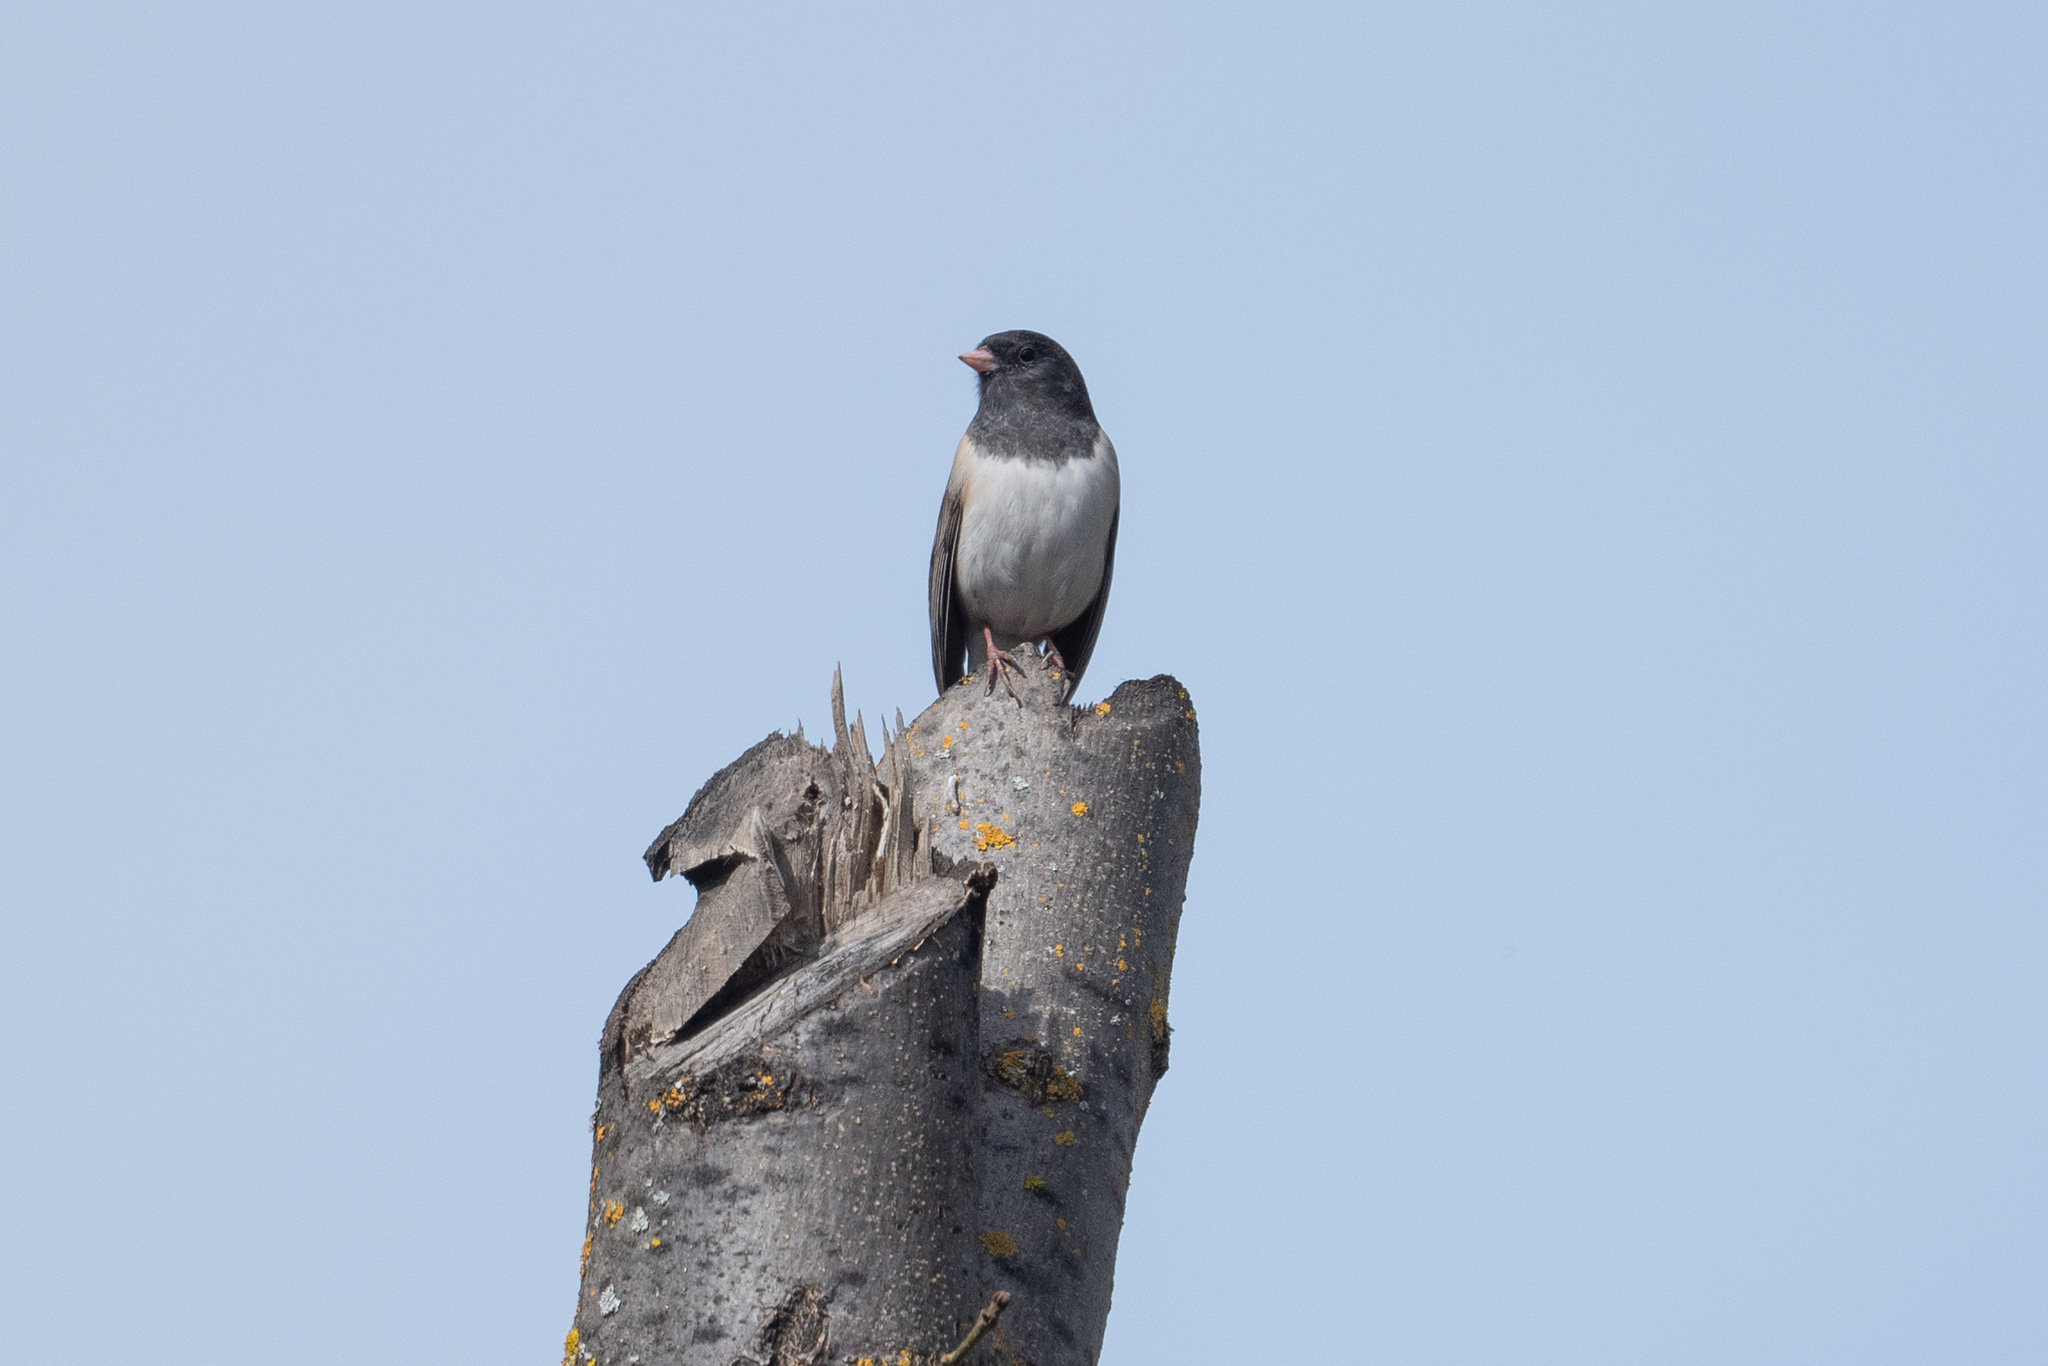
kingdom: Animalia
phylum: Chordata
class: Aves
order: Passeriformes
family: Passerellidae
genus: Junco
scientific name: Junco hyemalis
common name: Dark-eyed junco
